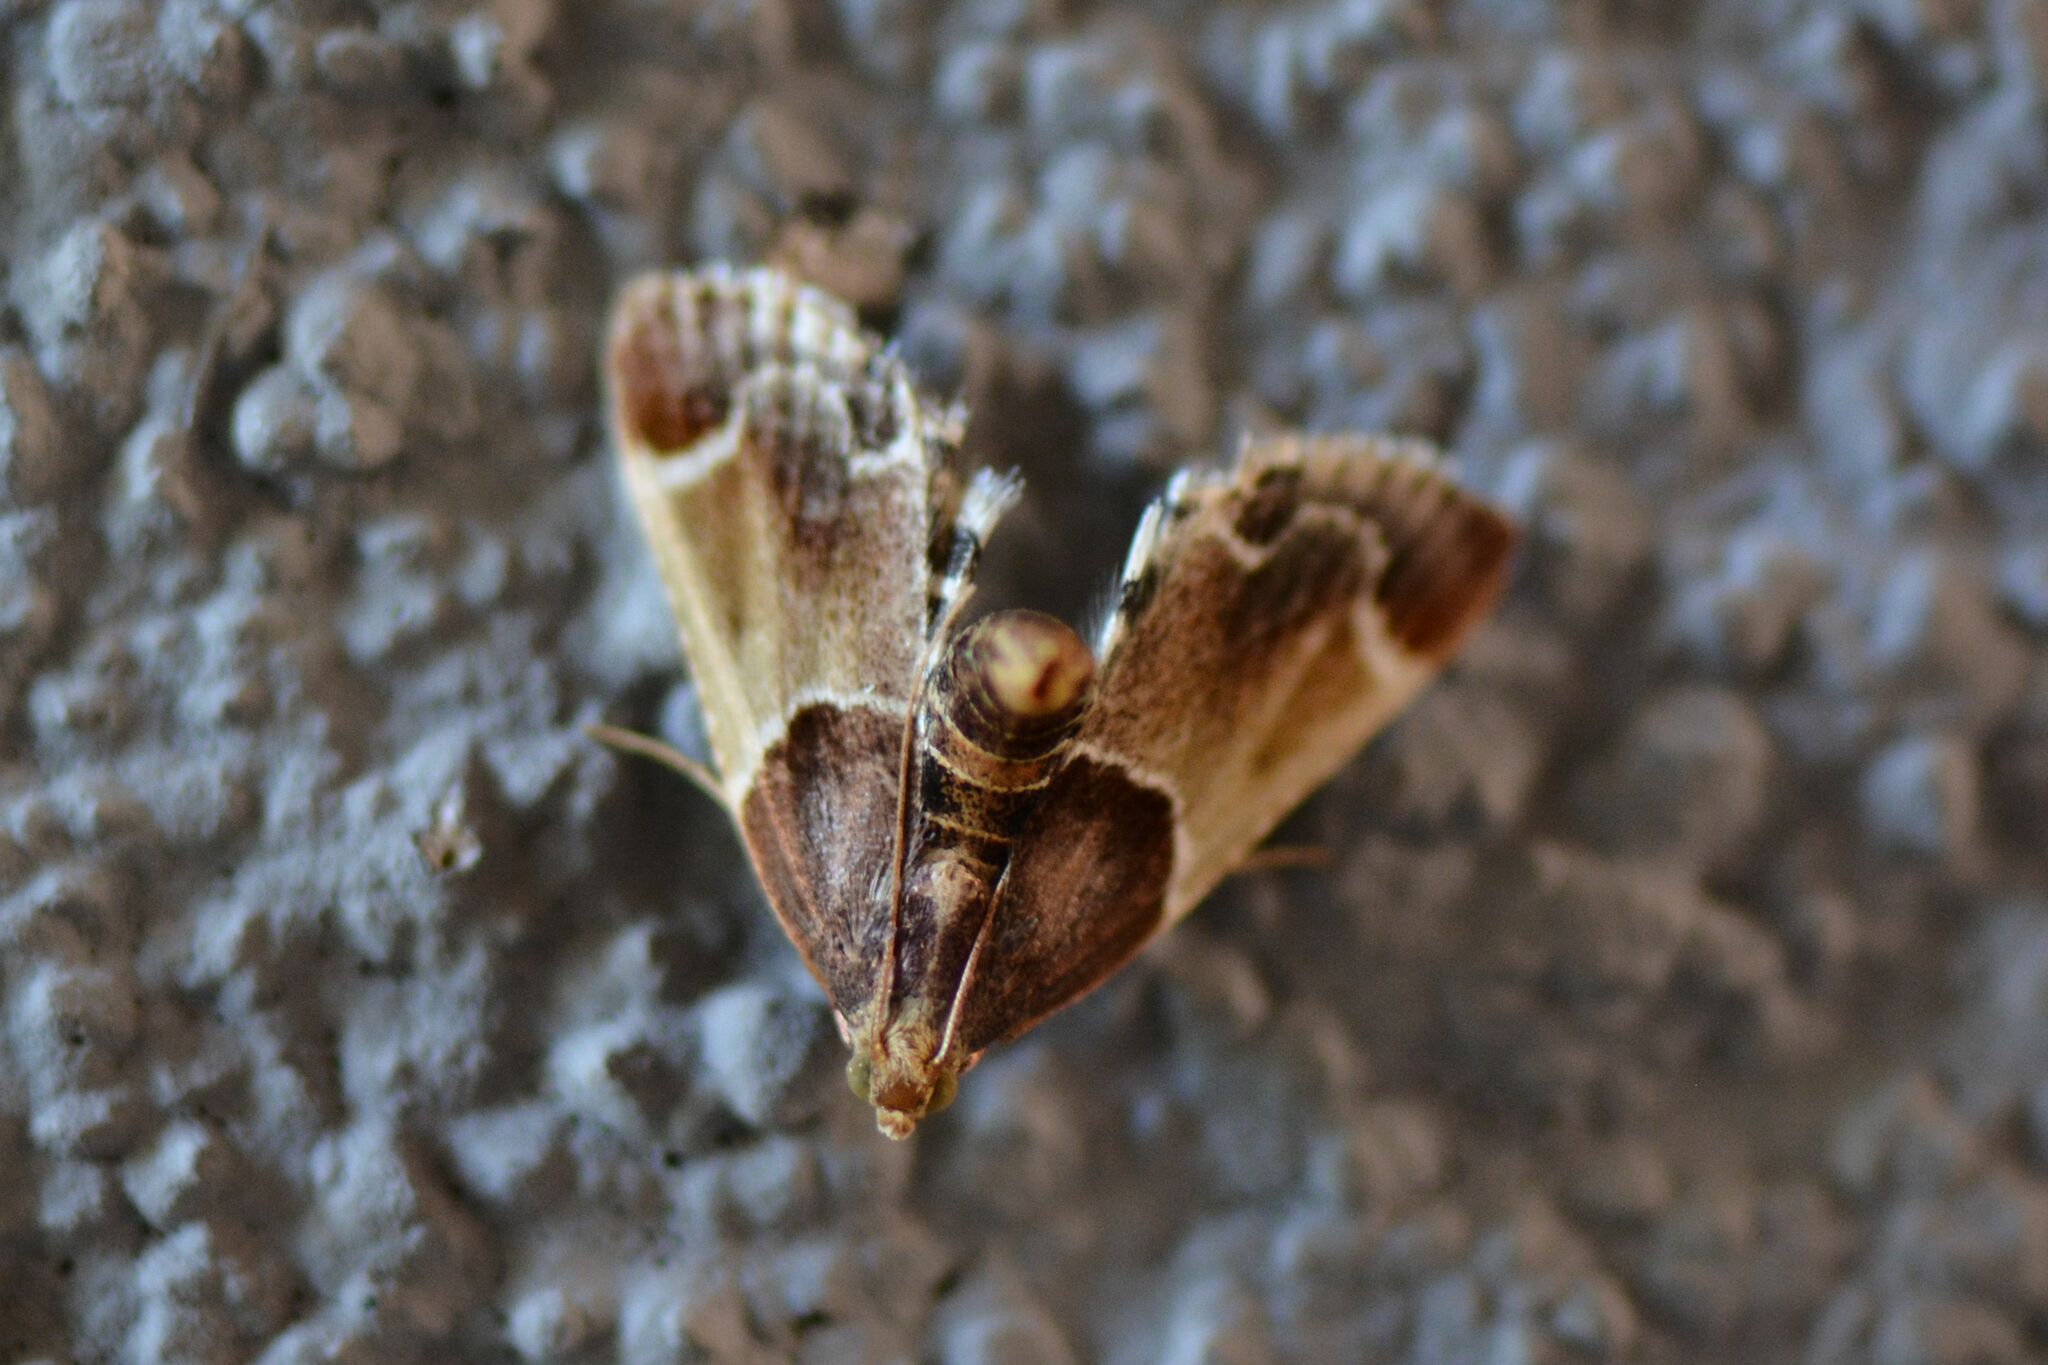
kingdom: Animalia
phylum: Arthropoda
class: Insecta
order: Lepidoptera
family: Pyralidae
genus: Pyralis
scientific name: Pyralis farinalis
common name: Meal moth
